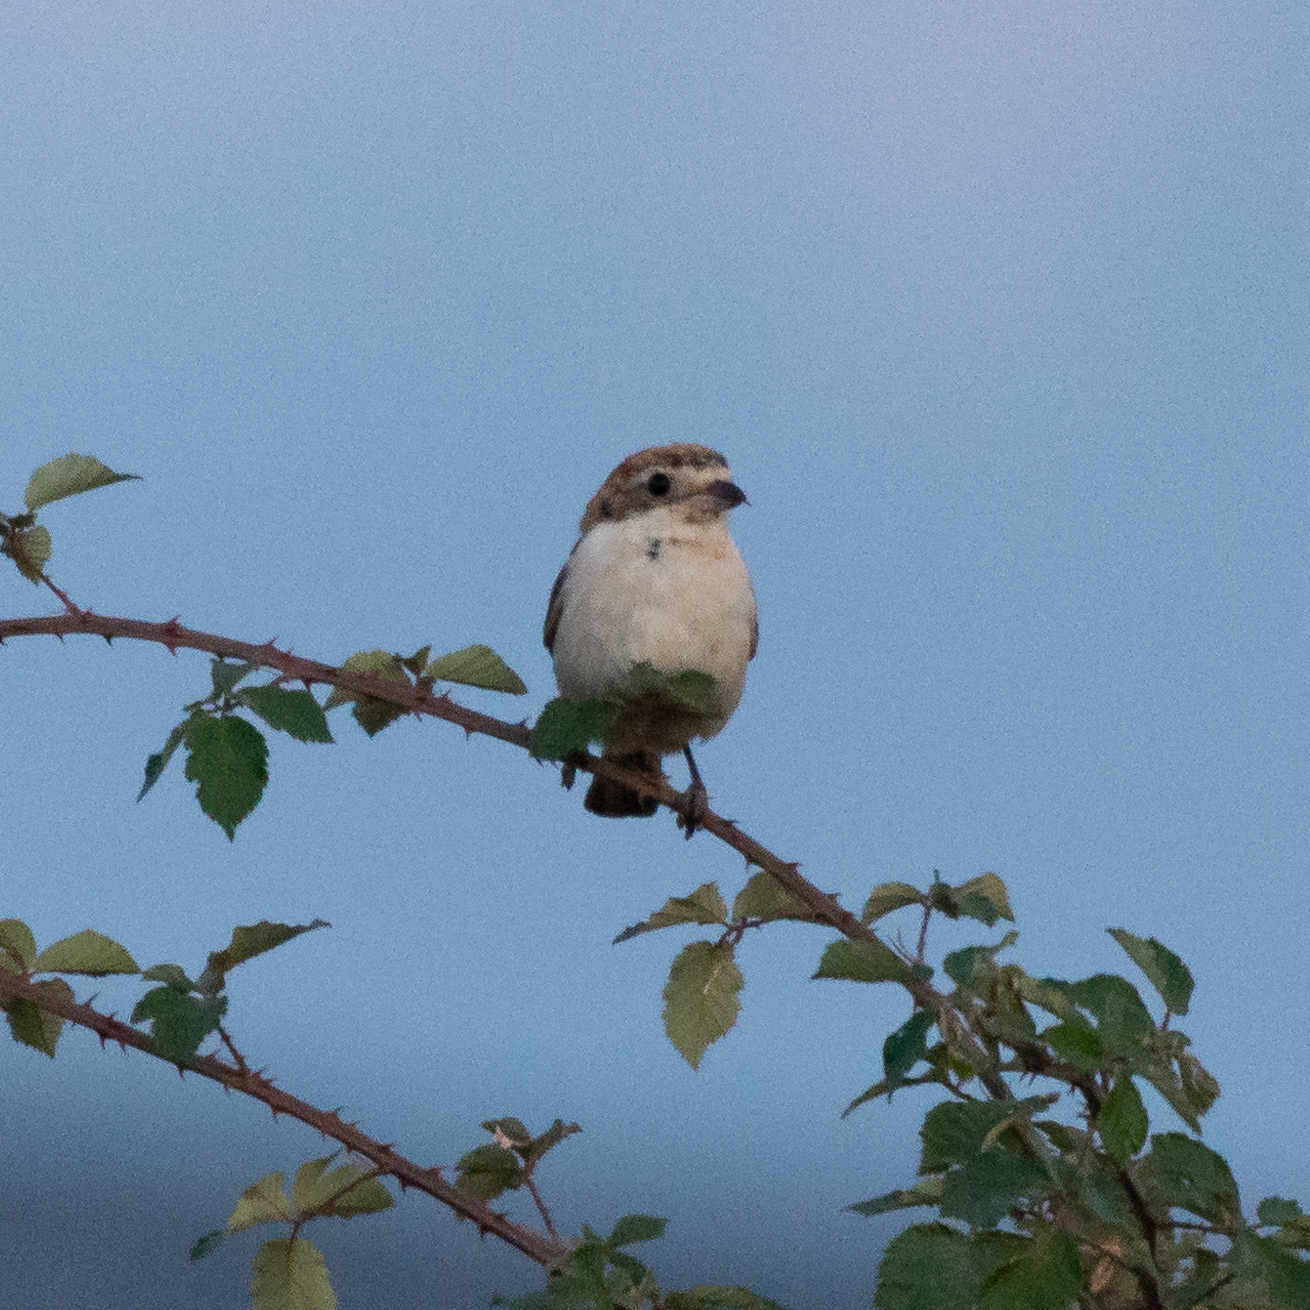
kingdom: Animalia
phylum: Chordata
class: Aves
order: Passeriformes
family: Laniidae
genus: Lanius
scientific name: Lanius senator
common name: Woodchat shrike
